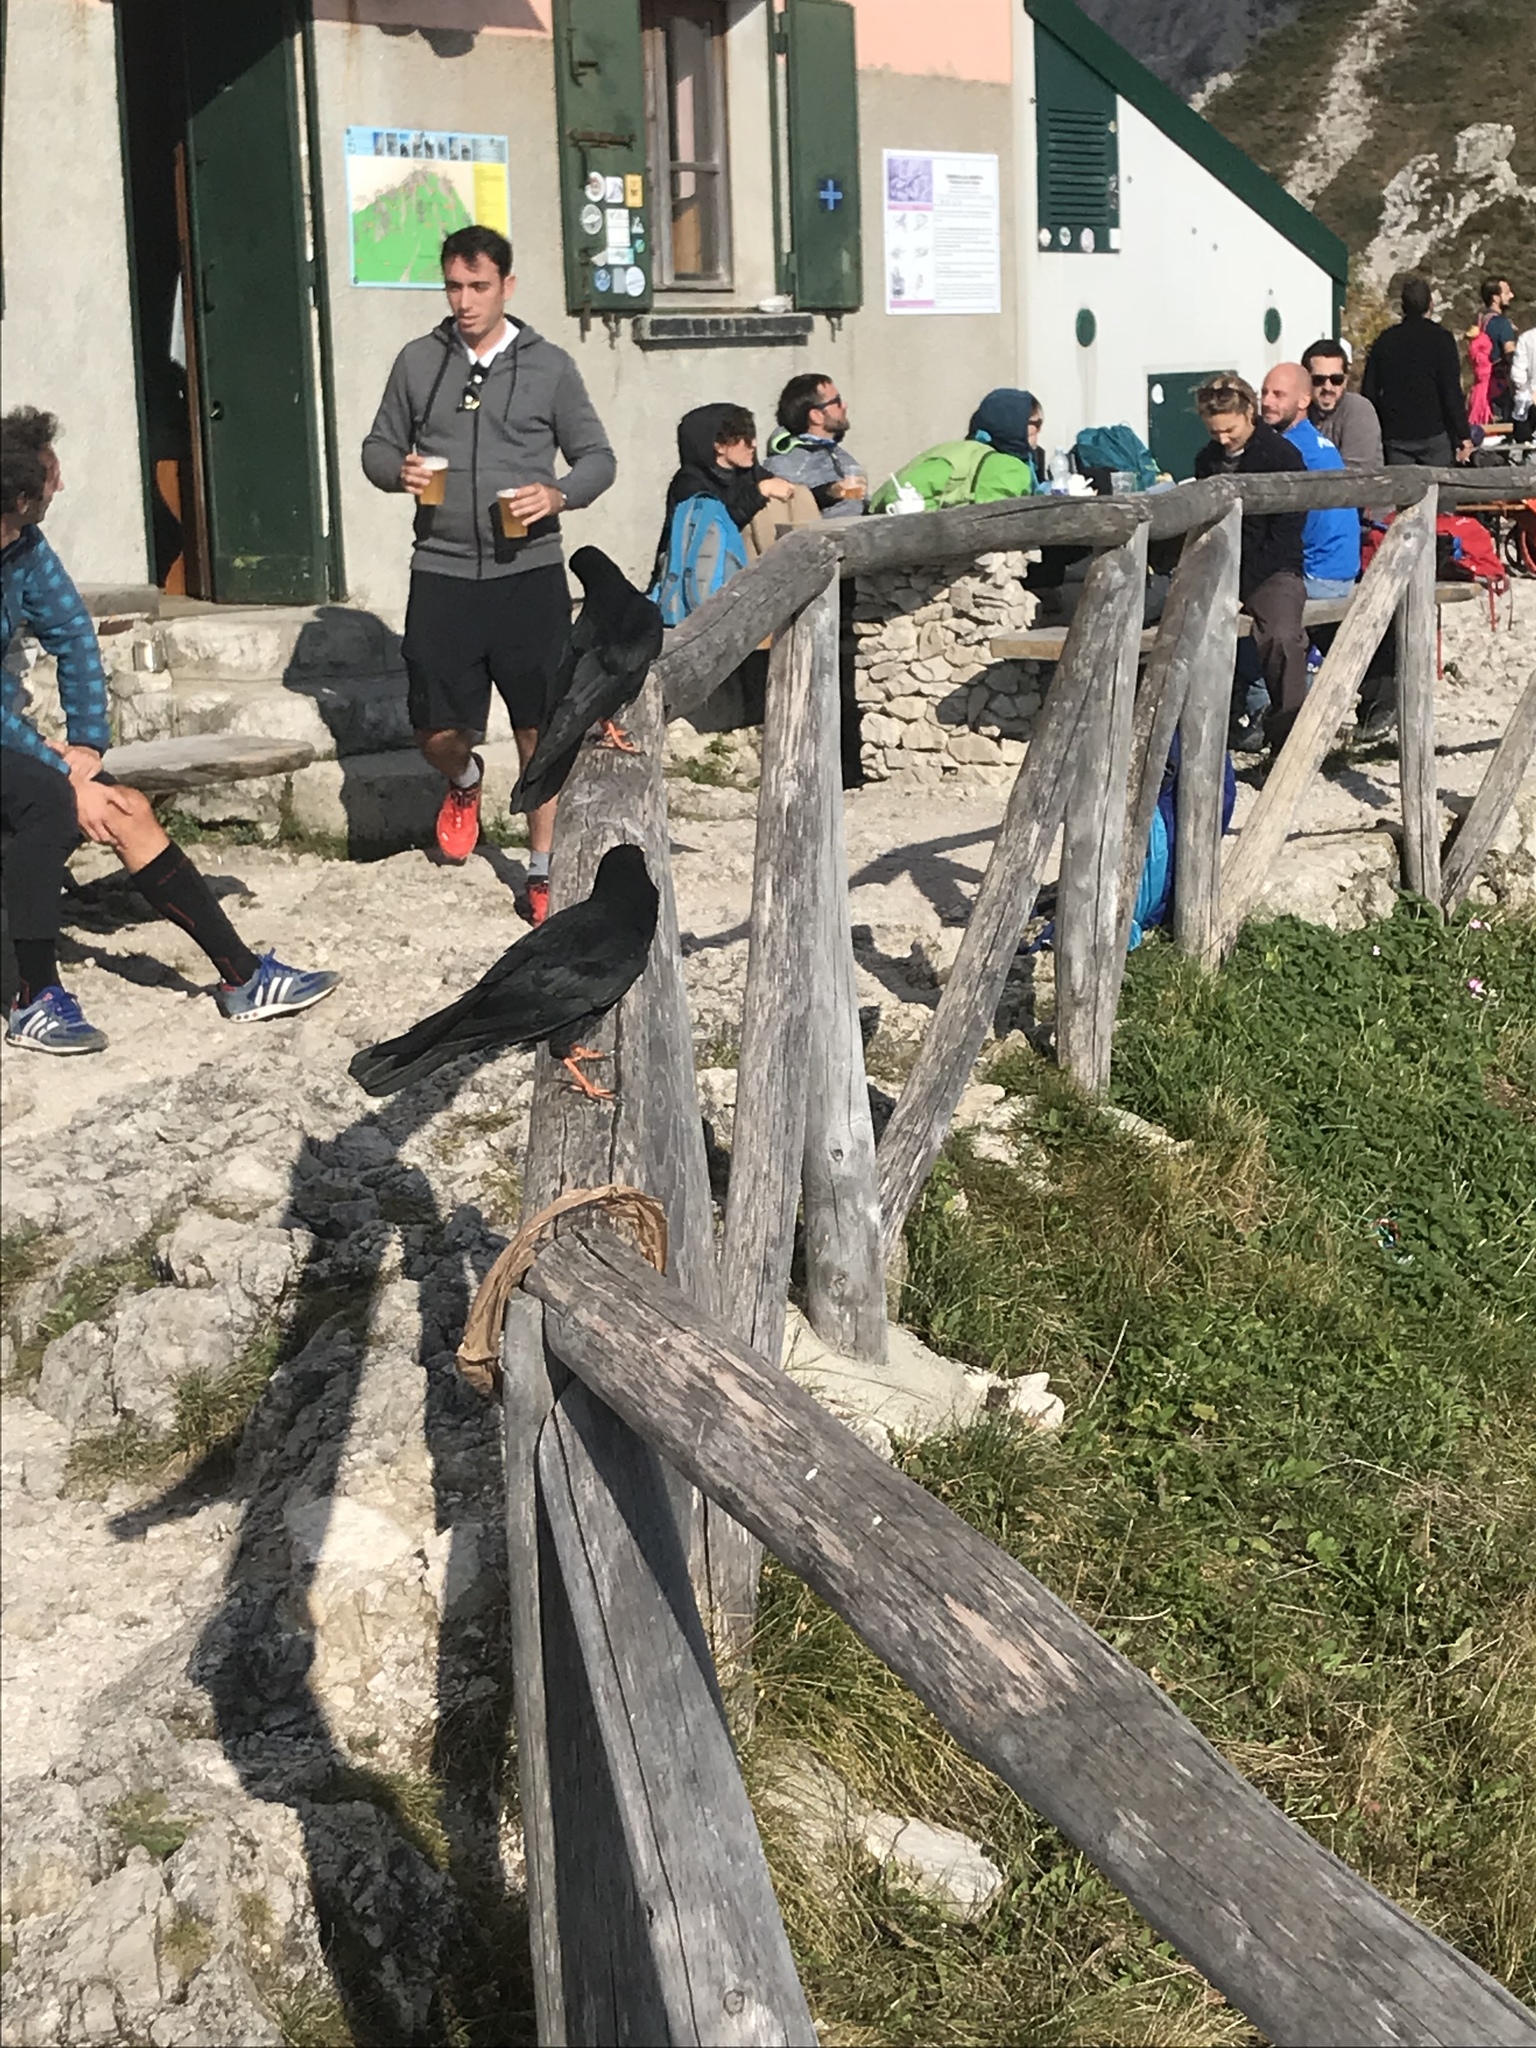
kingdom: Animalia
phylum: Chordata
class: Aves
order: Passeriformes
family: Corvidae
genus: Pyrrhocorax
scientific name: Pyrrhocorax graculus
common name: Alpine chough
